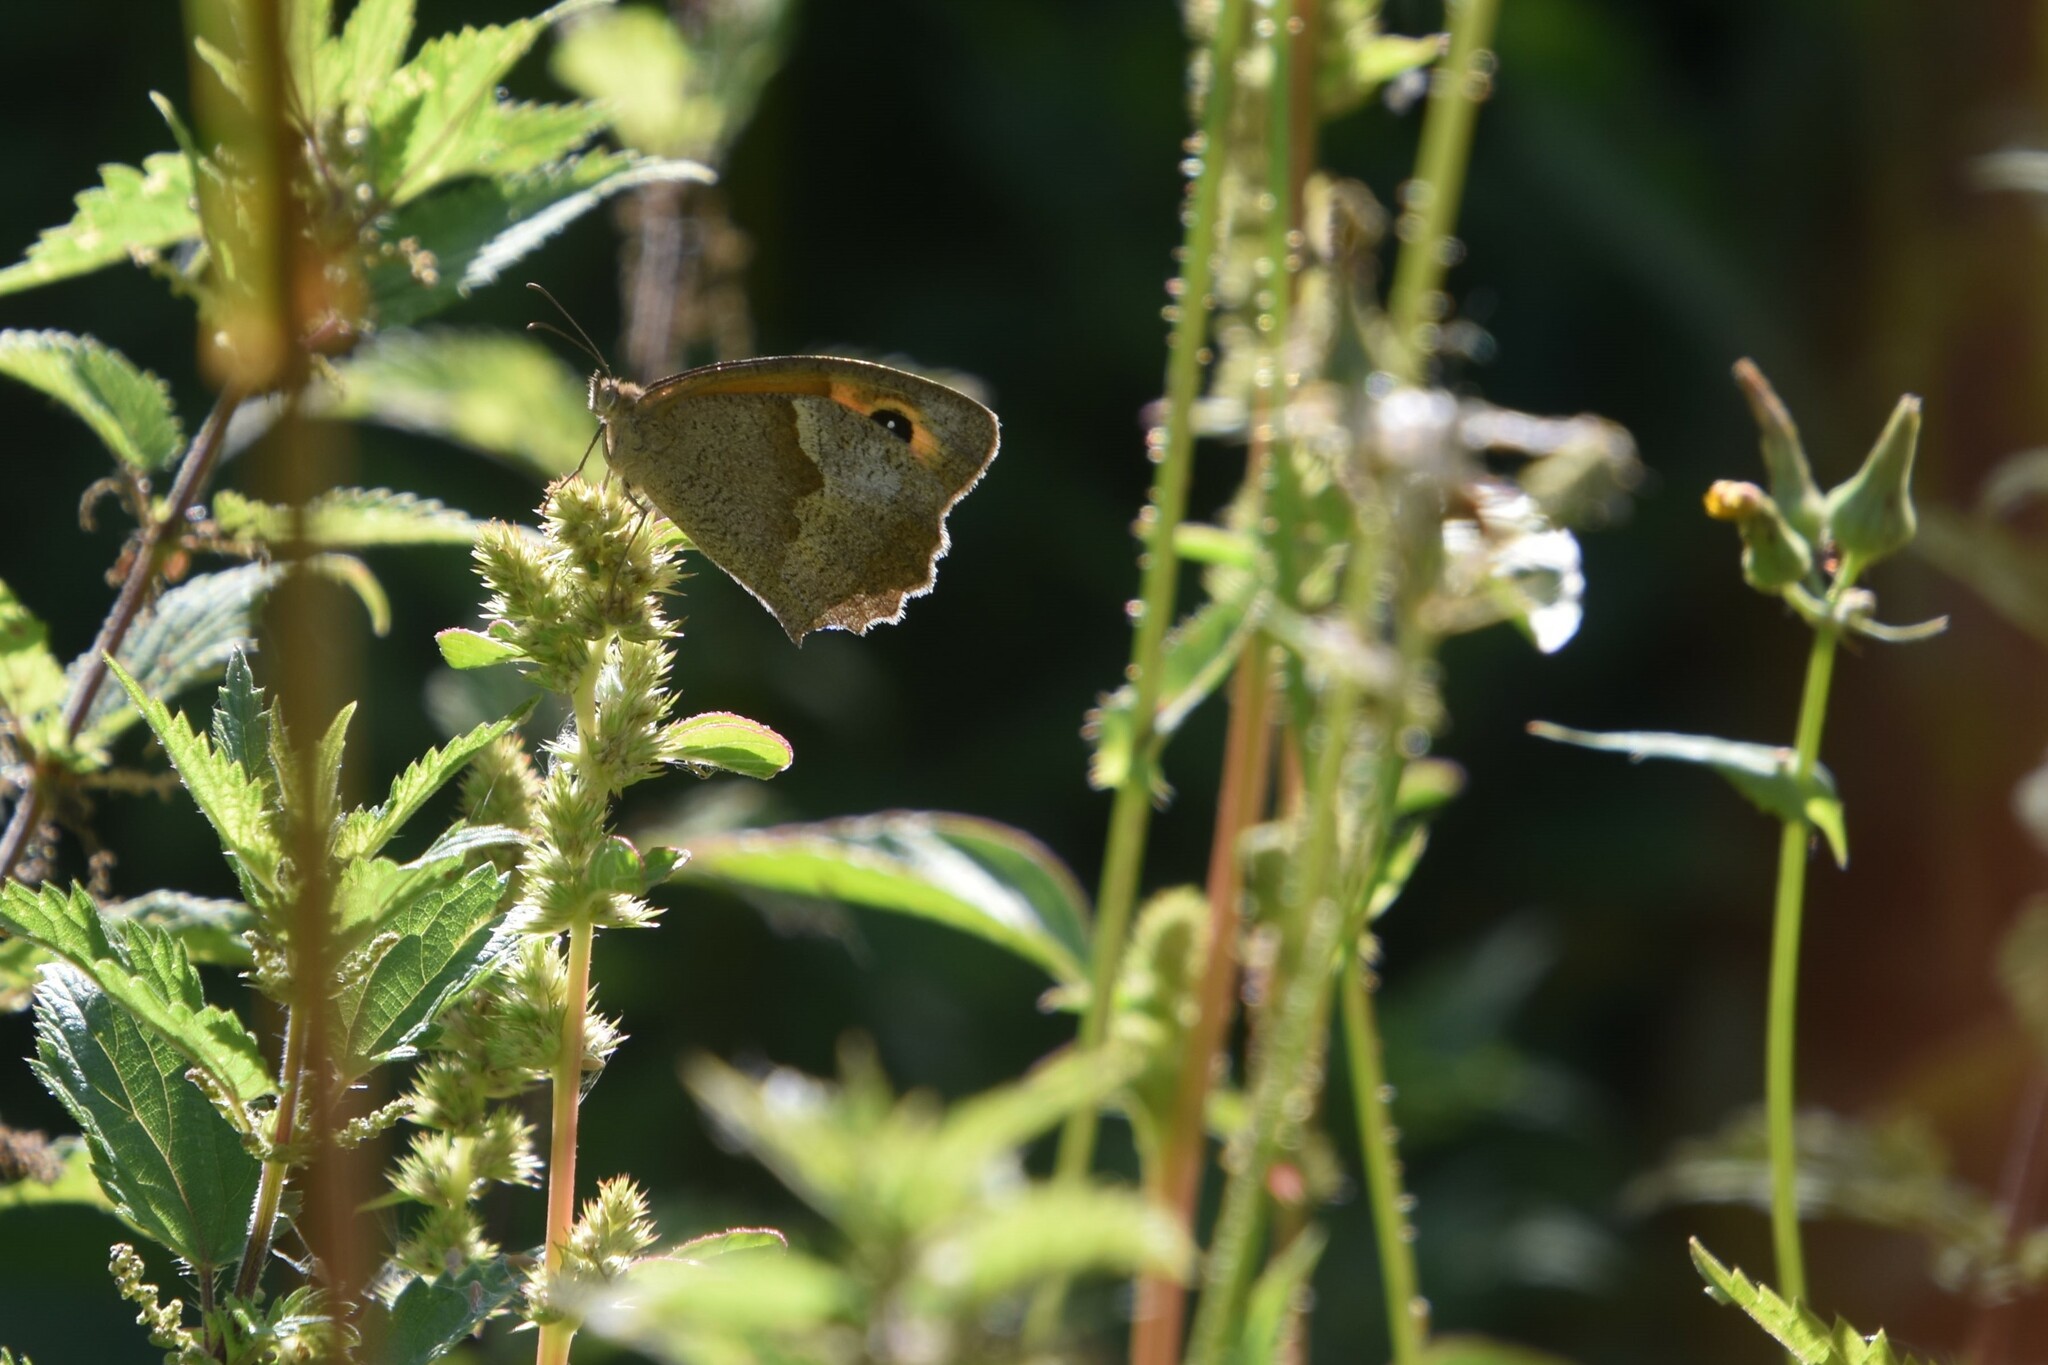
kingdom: Animalia
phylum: Arthropoda
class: Insecta
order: Lepidoptera
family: Nymphalidae
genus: Maniola
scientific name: Maniola jurtina
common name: Meadow brown
